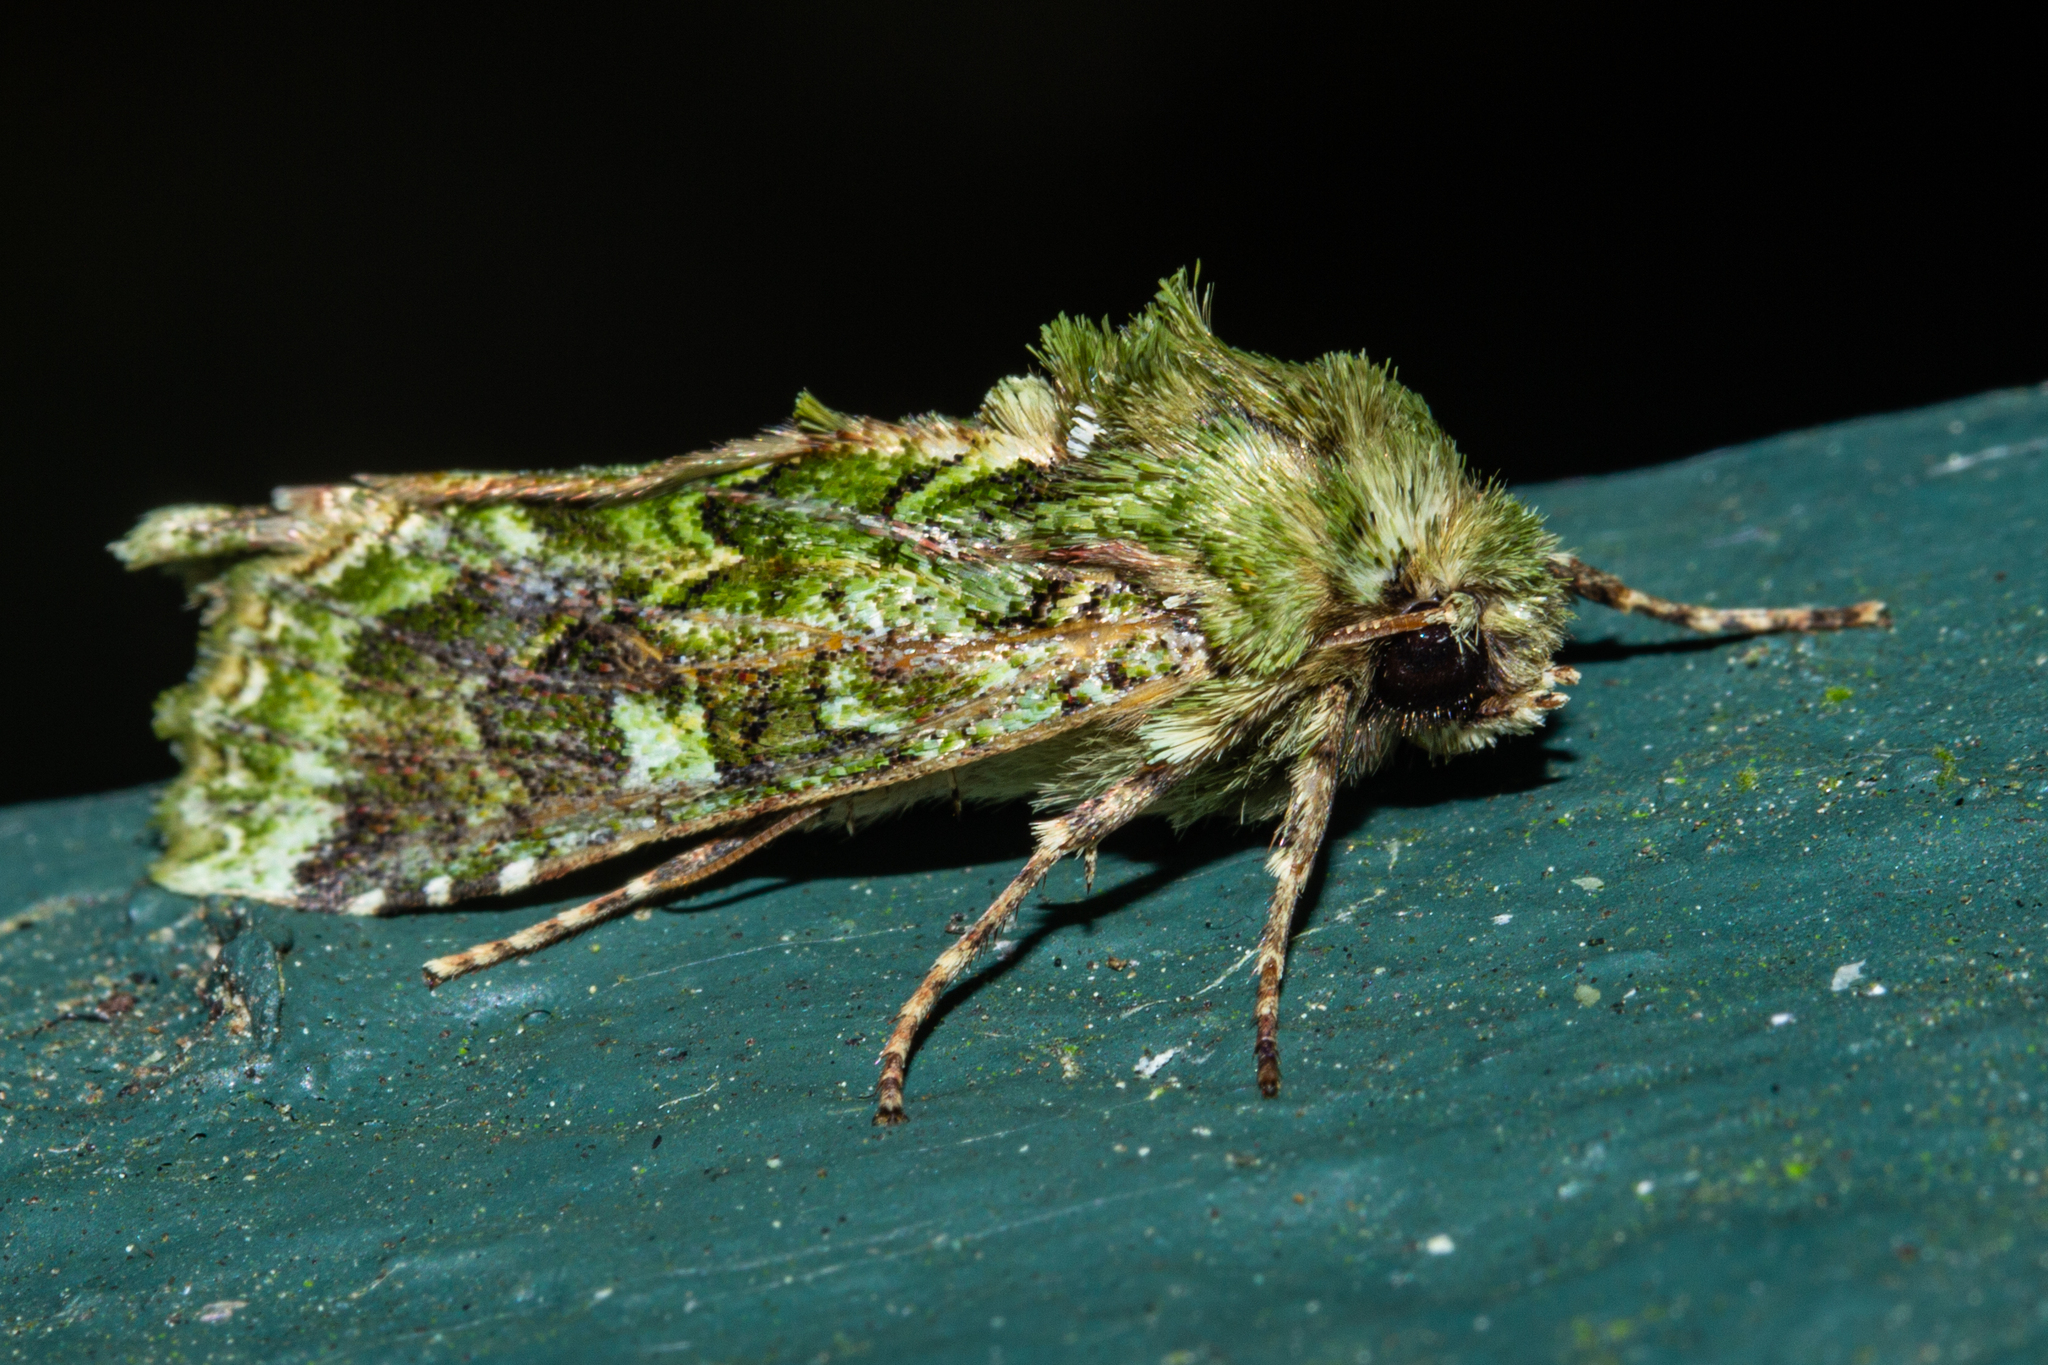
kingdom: Animalia
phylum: Arthropoda
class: Insecta
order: Lepidoptera
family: Noctuidae
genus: Feredayia
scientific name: Feredayia grammosa
